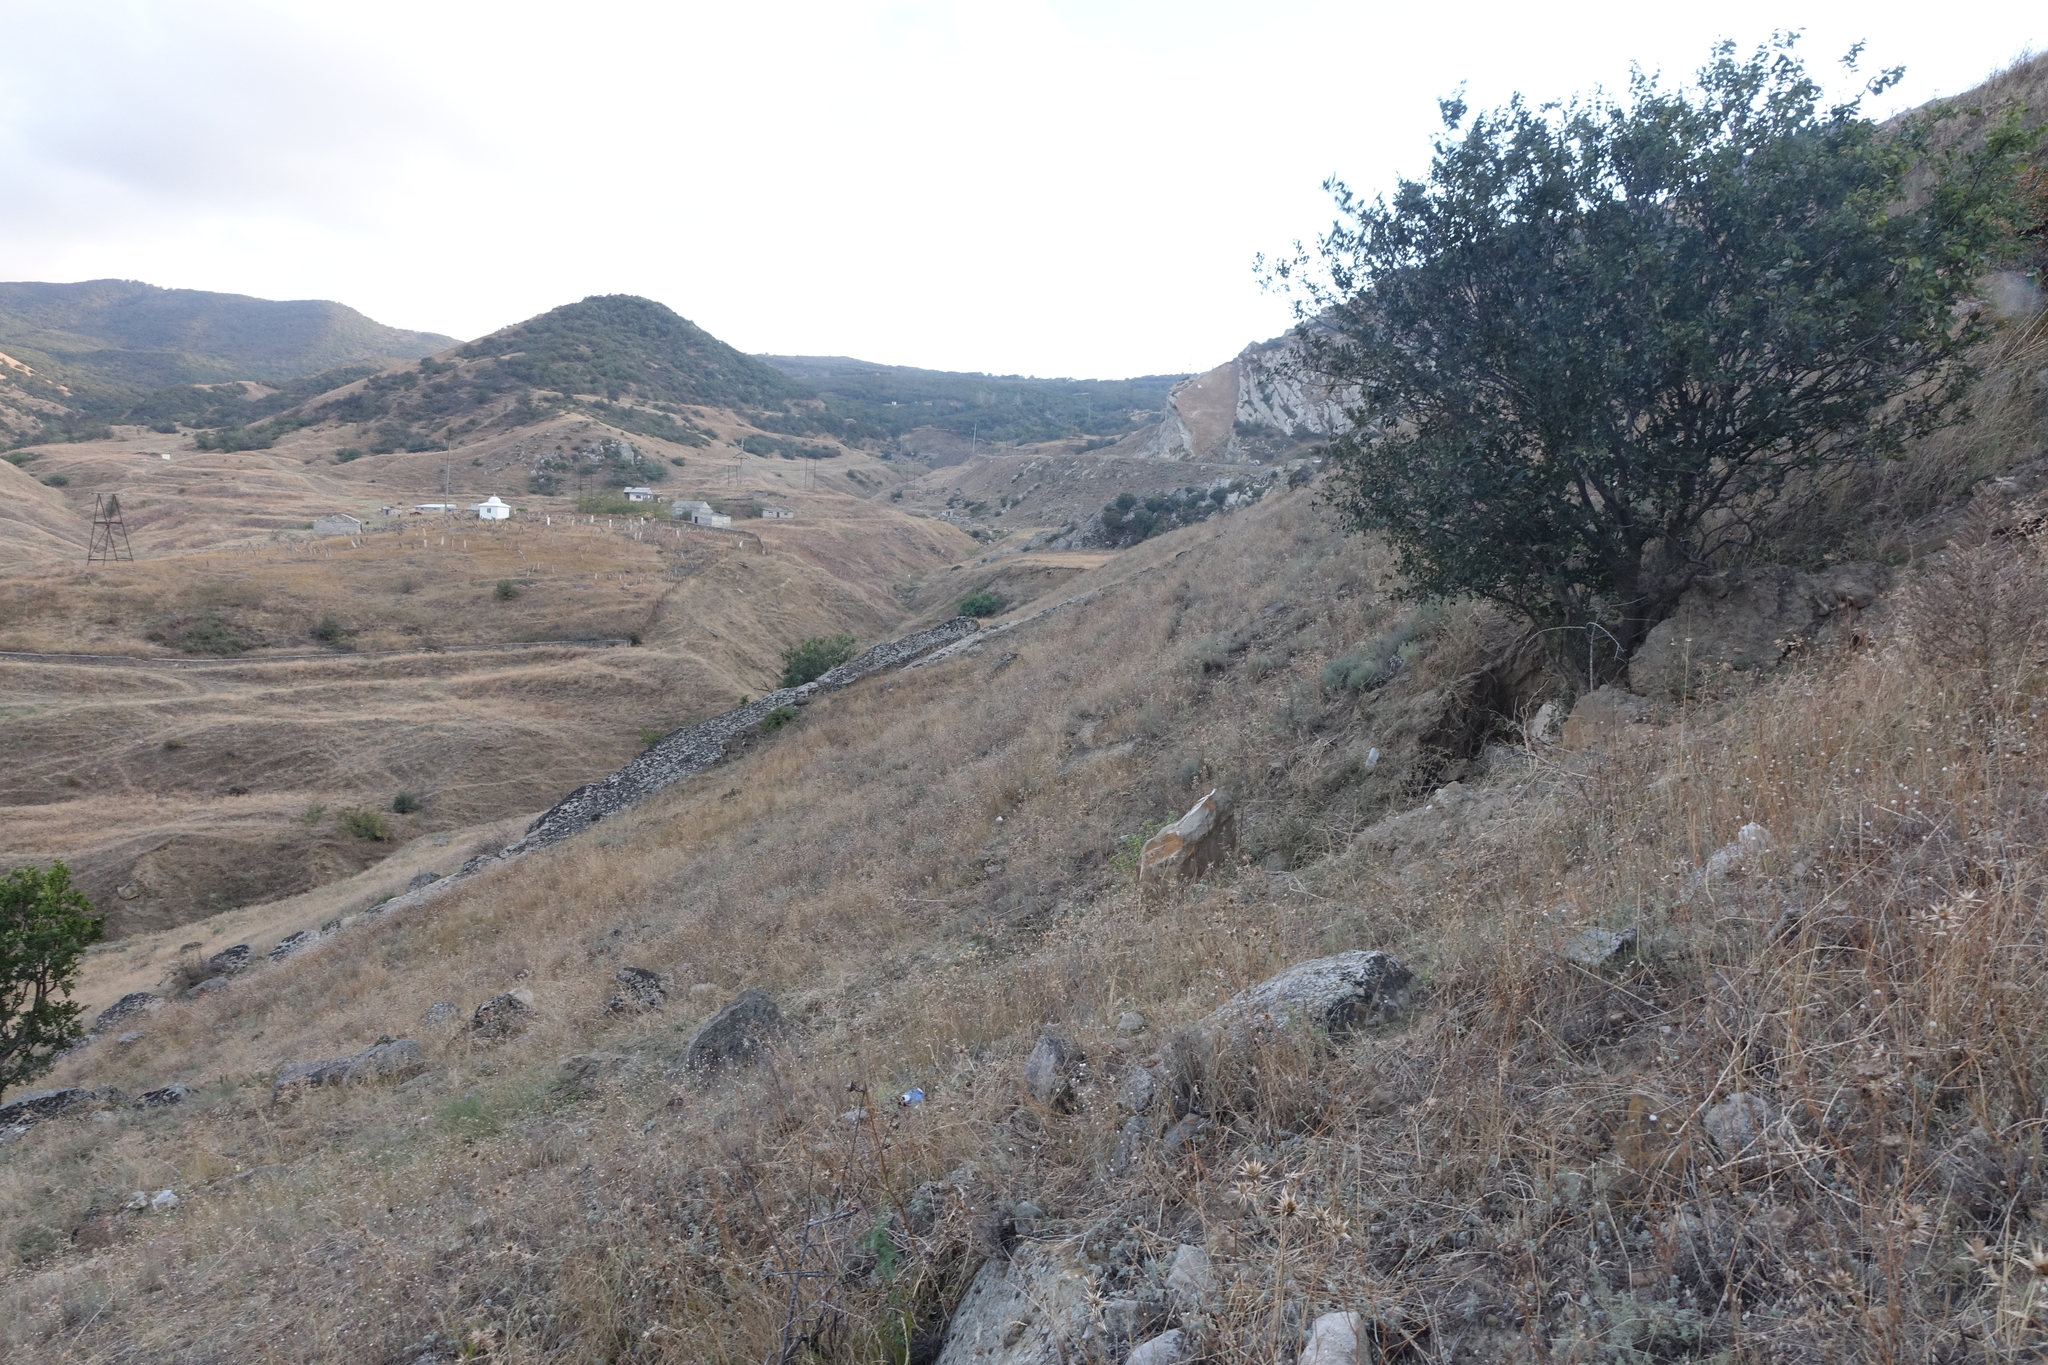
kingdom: Plantae
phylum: Tracheophyta
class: Magnoliopsida
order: Rosales
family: Cannabaceae
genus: Celtis
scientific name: Celtis glabrata
